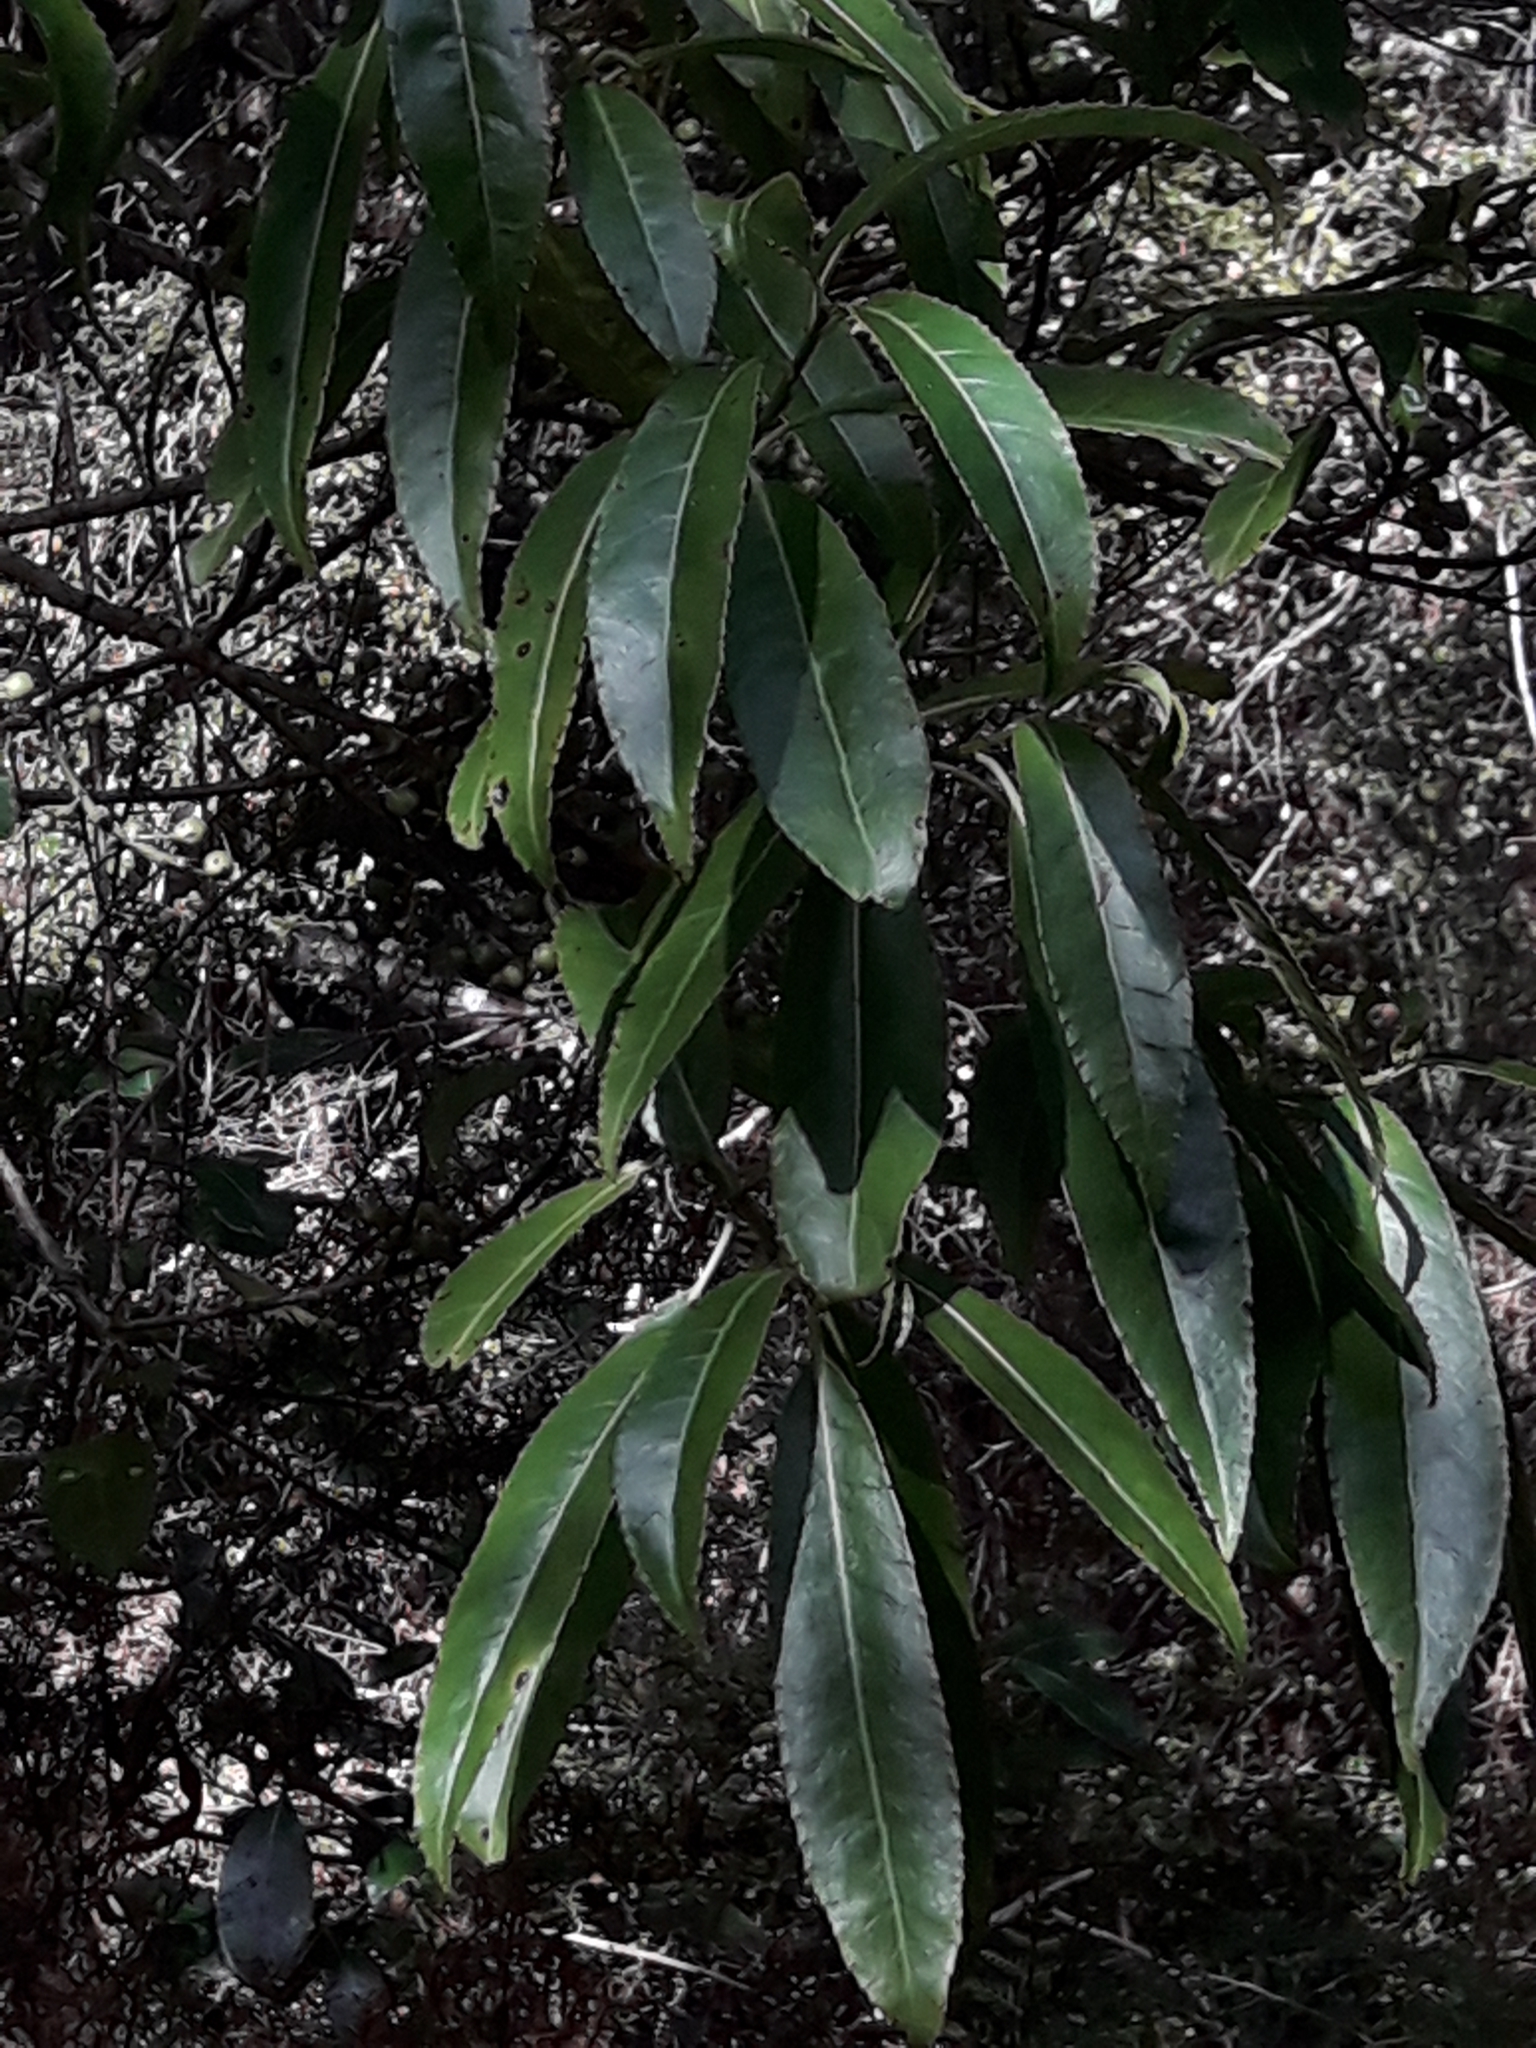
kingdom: Plantae
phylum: Tracheophyta
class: Magnoliopsida
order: Malpighiales
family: Violaceae
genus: Melicytus
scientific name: Melicytus lanceolatus
